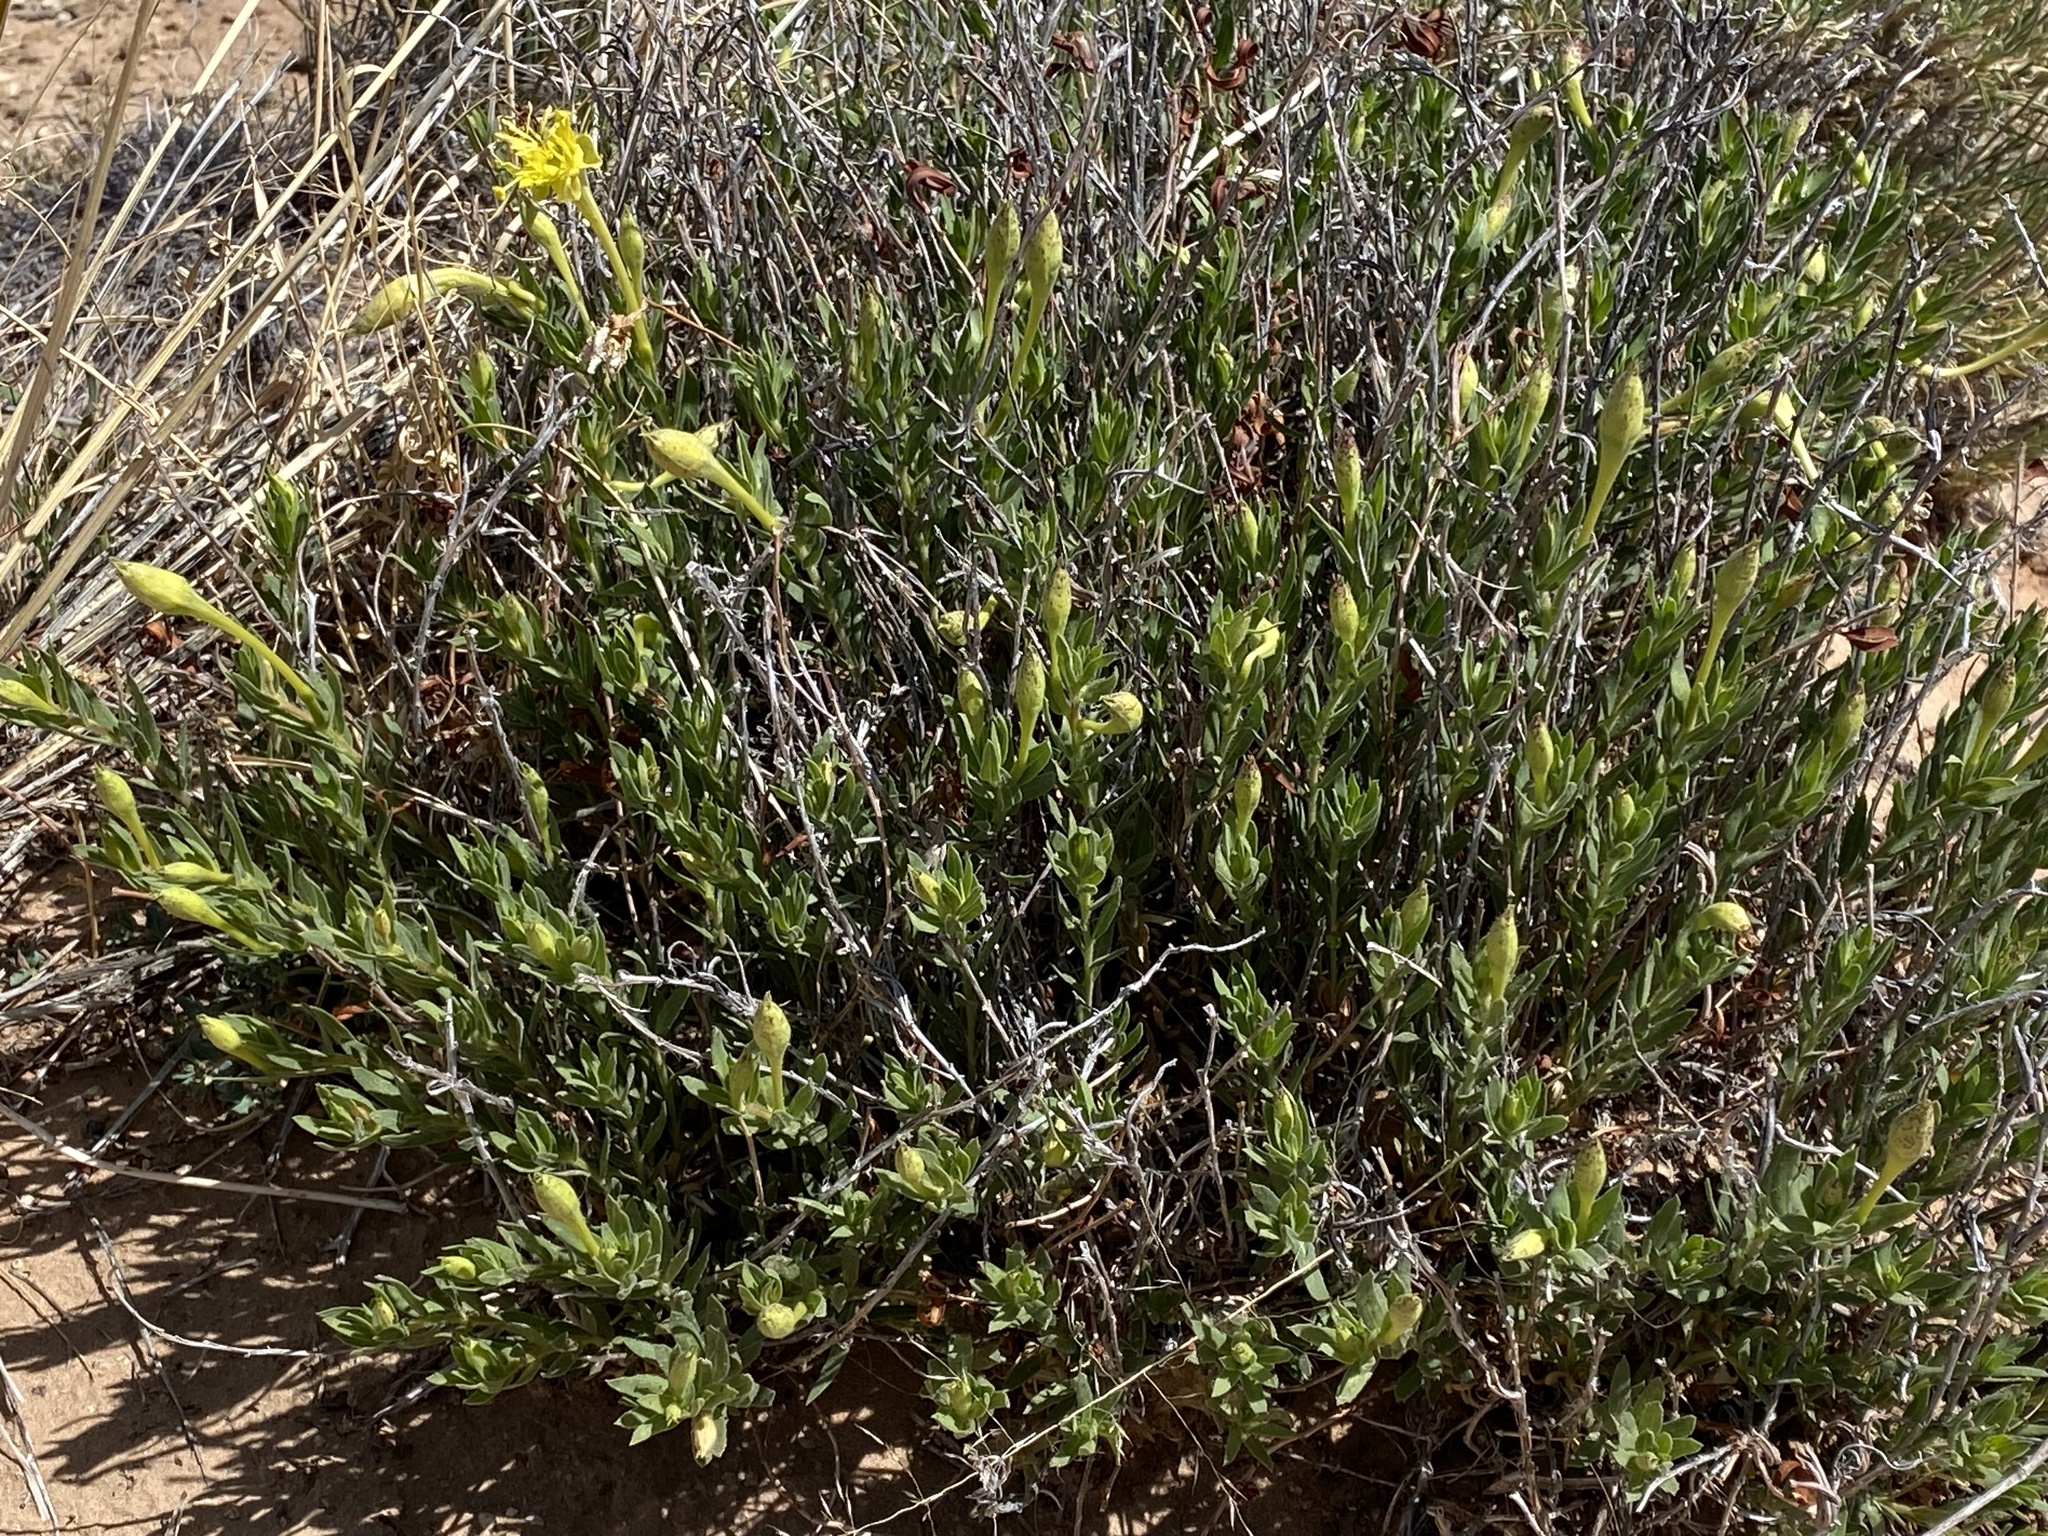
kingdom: Plantae
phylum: Tracheophyta
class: Magnoliopsida
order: Myrtales
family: Onagraceae
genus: Oenothera
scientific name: Oenothera hartwegii
